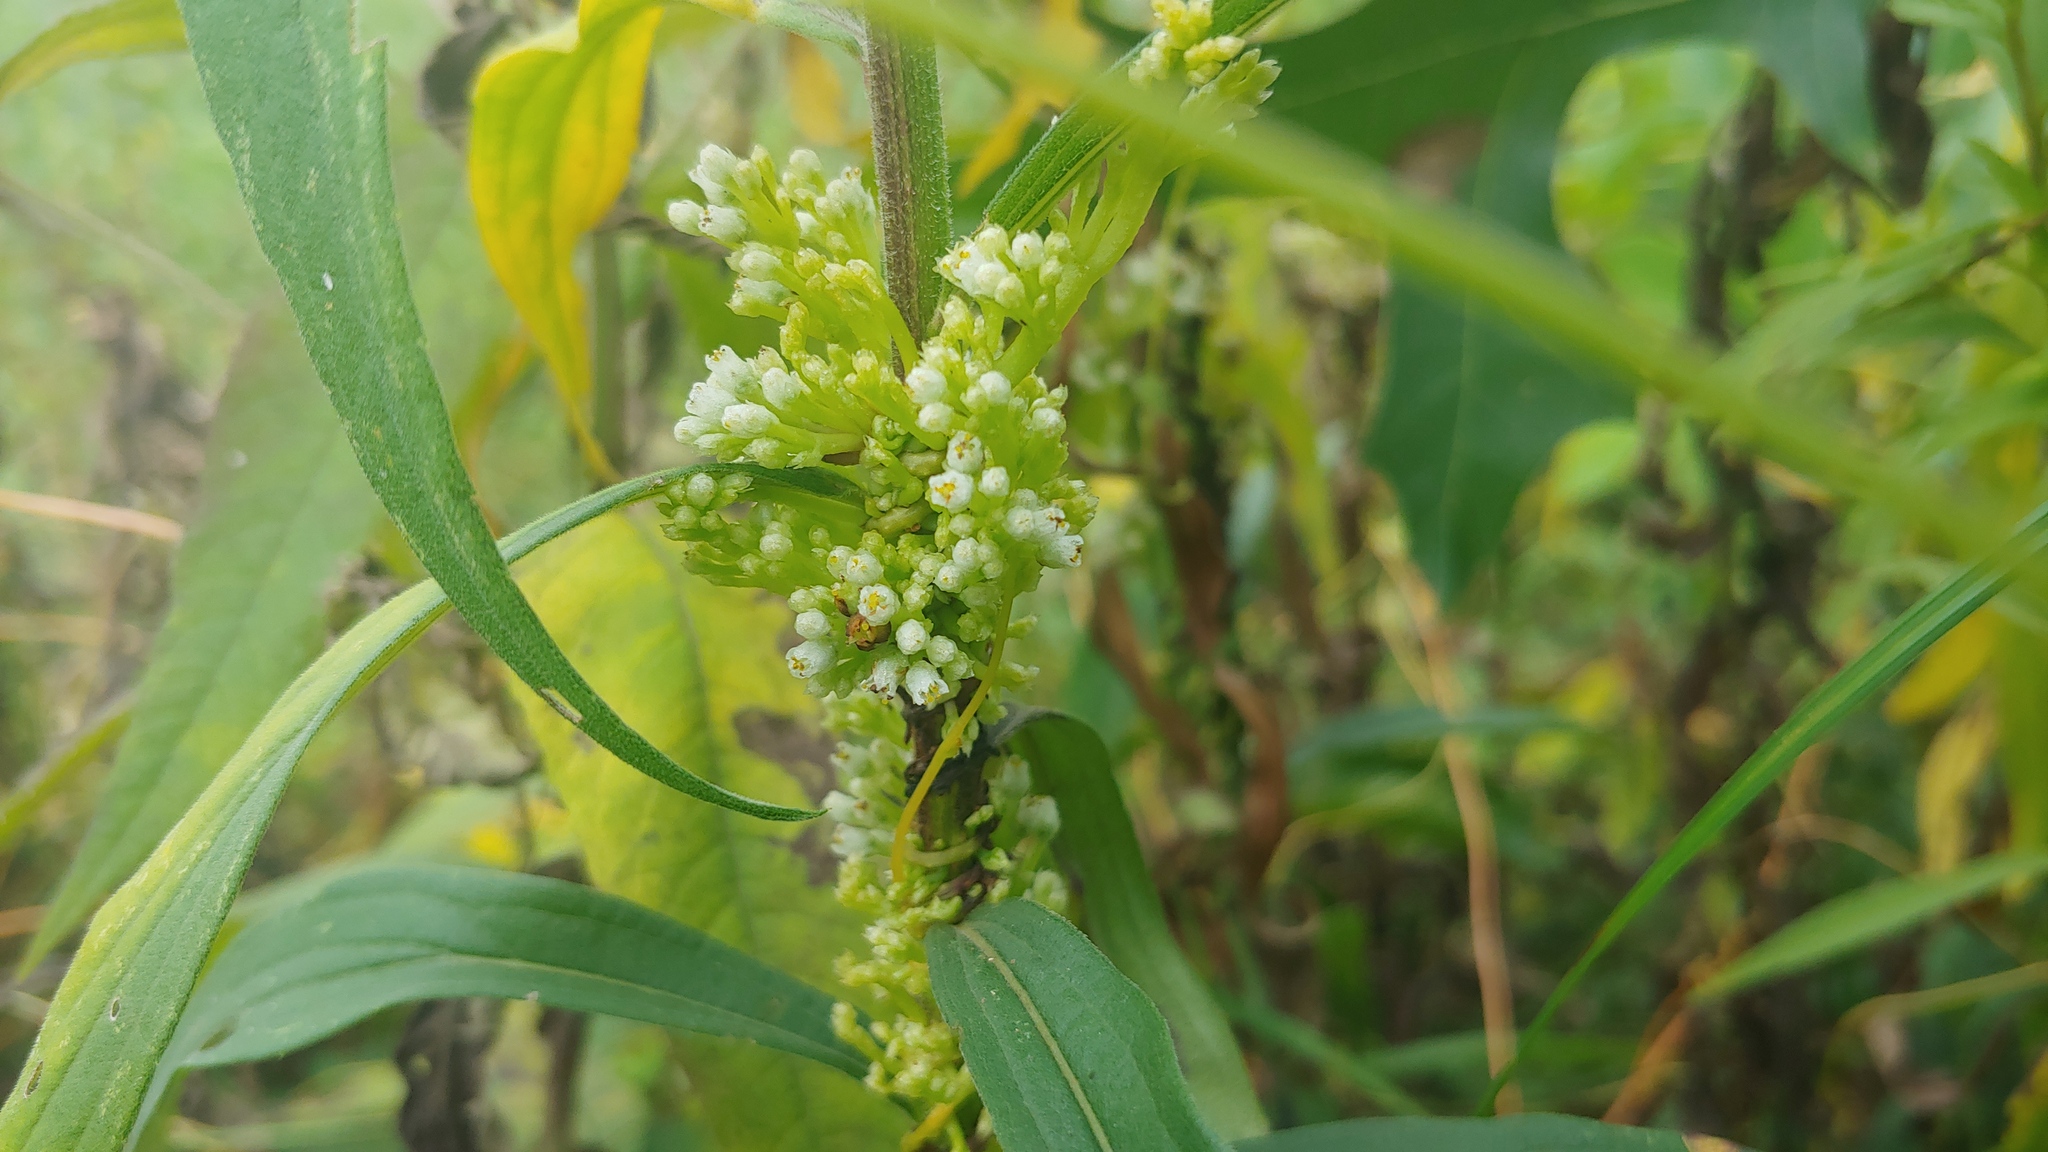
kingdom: Plantae
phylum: Tracheophyta
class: Magnoliopsida
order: Solanales
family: Convolvulaceae
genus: Cuscuta
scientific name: Cuscuta coryli
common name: Hazel dodder
